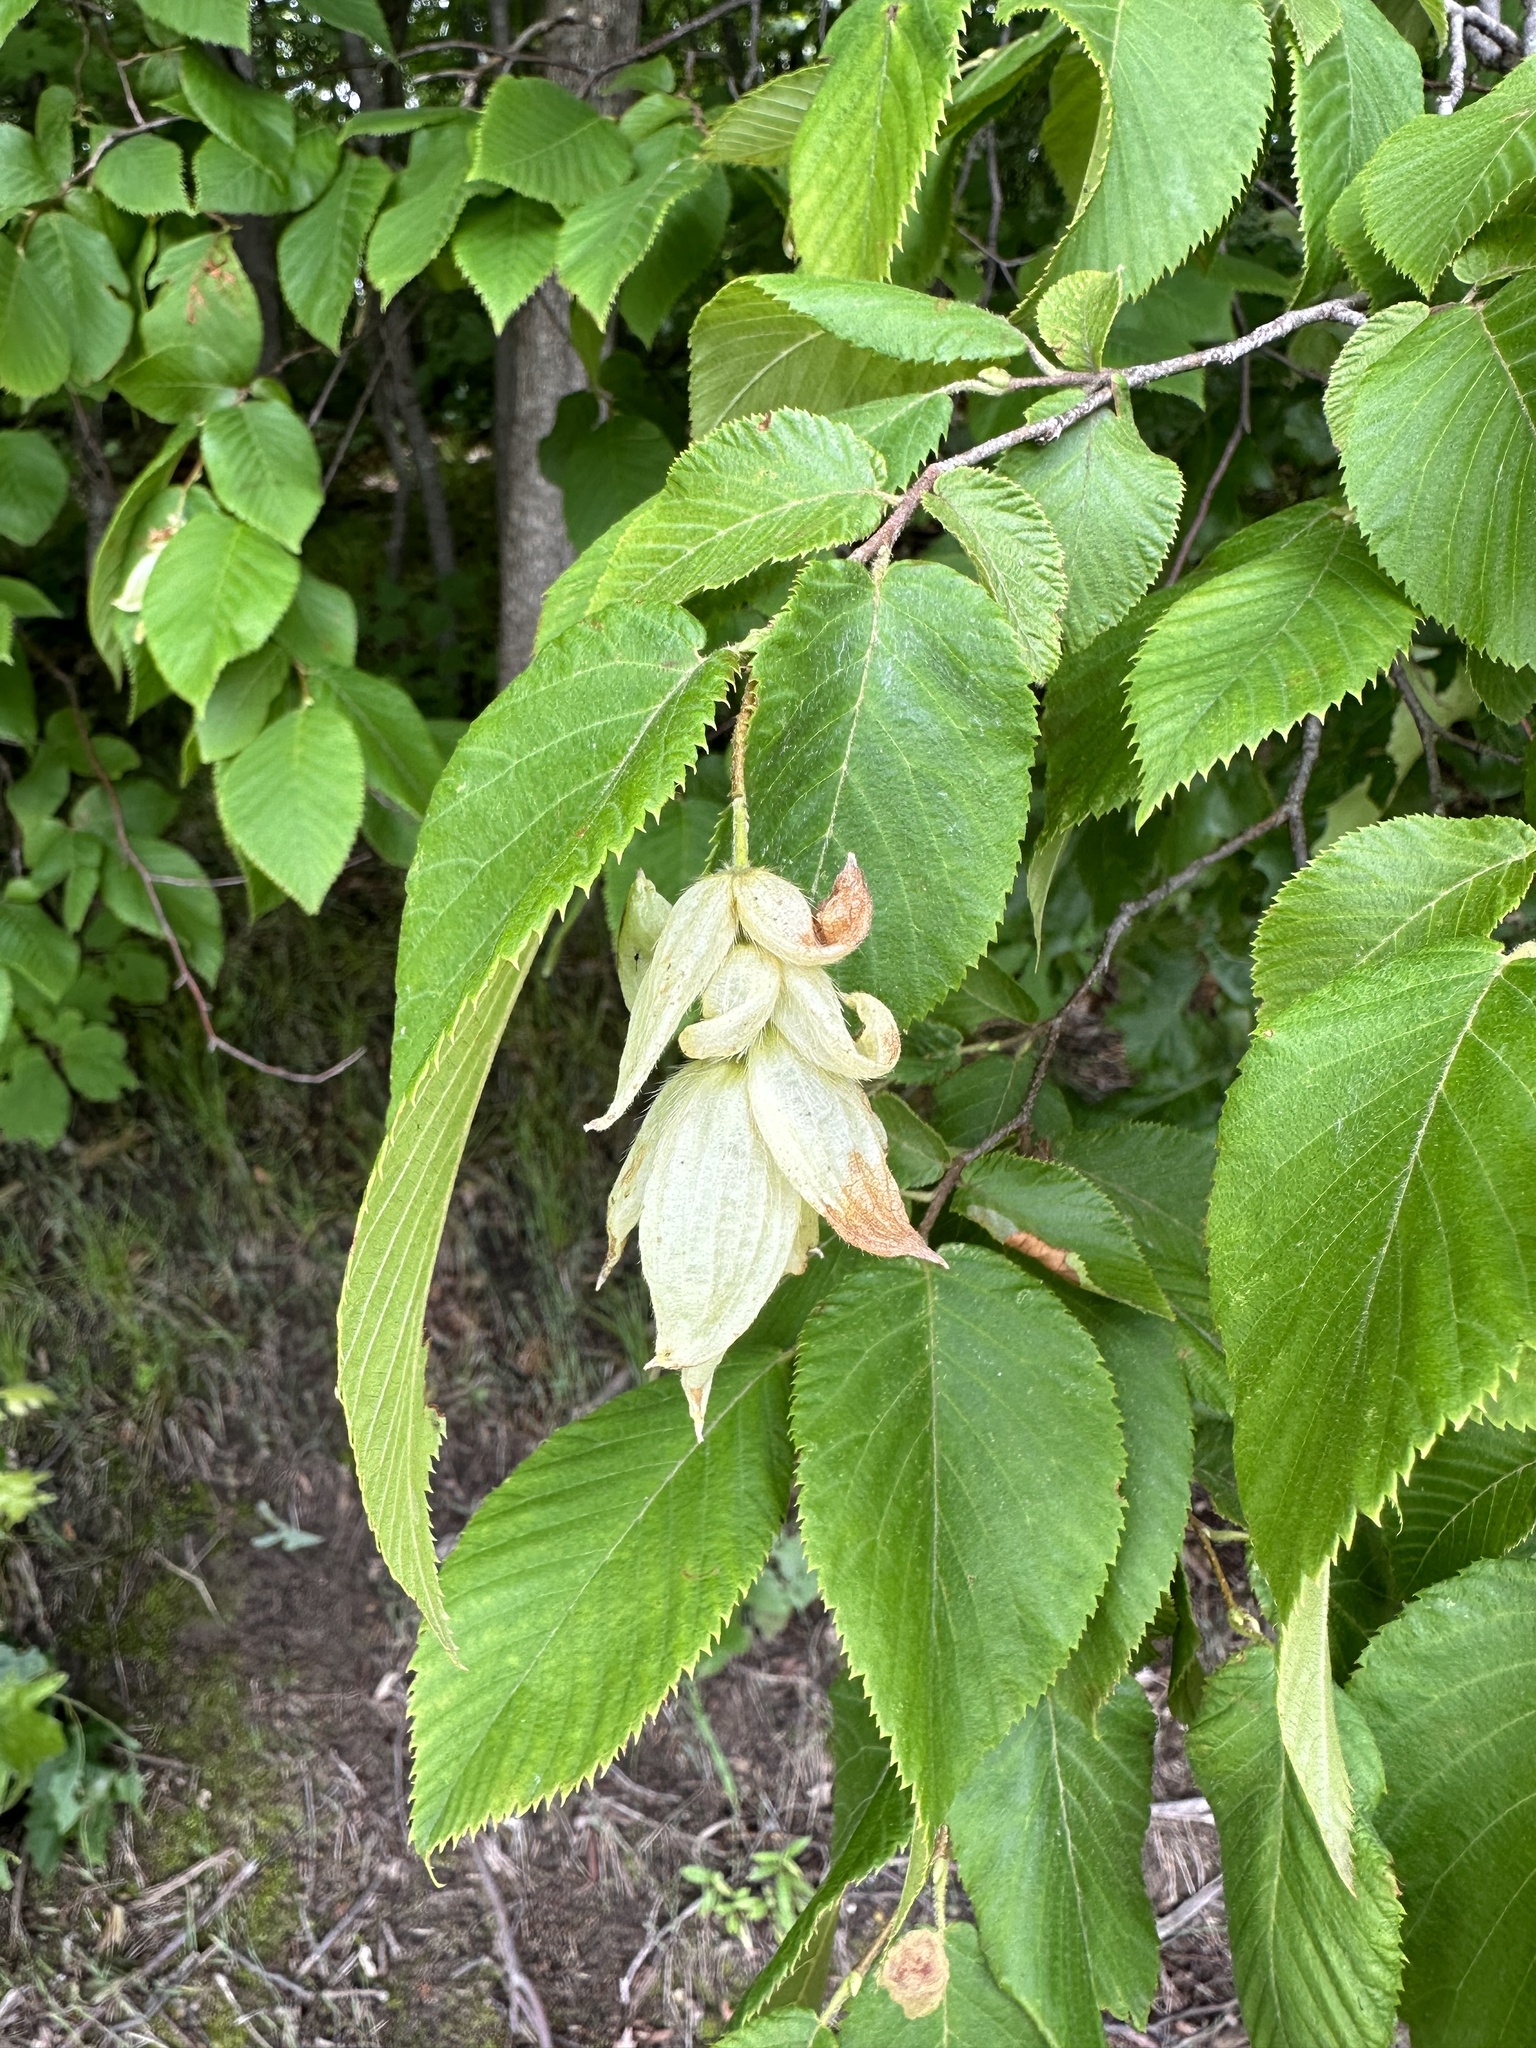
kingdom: Plantae
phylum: Tracheophyta
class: Magnoliopsida
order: Fagales
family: Betulaceae
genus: Ostrya
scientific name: Ostrya virginiana
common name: Ironwood
